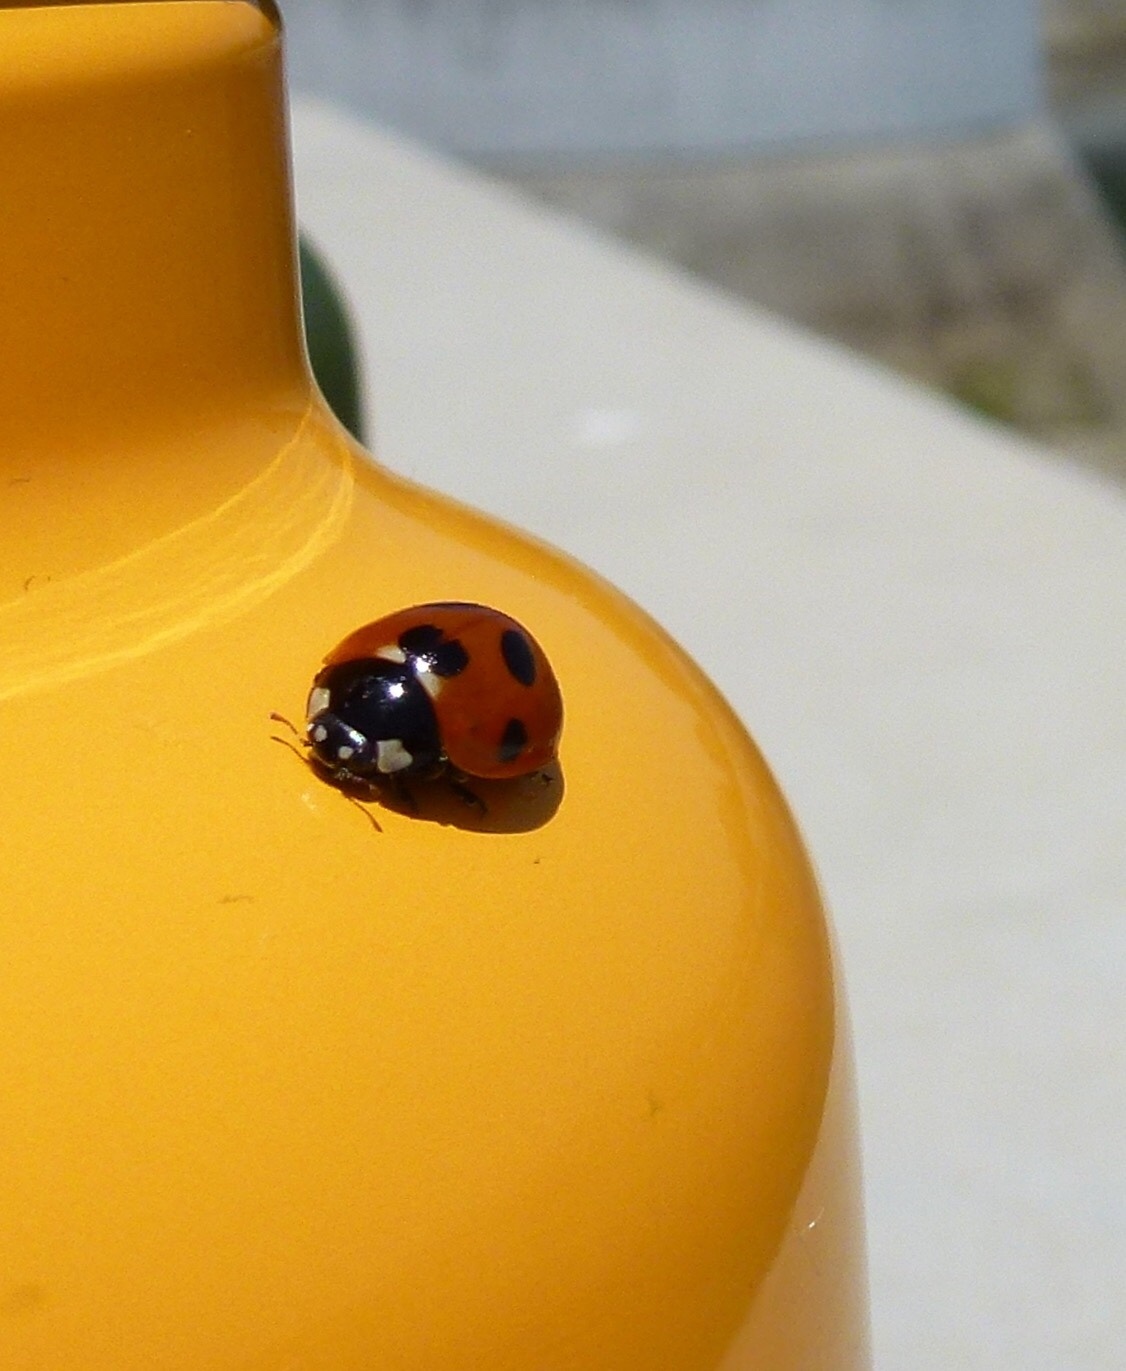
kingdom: Animalia
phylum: Arthropoda
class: Insecta
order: Coleoptera
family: Coccinellidae
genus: Coccinella
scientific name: Coccinella septempunctata
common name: Sevenspotted lady beetle
